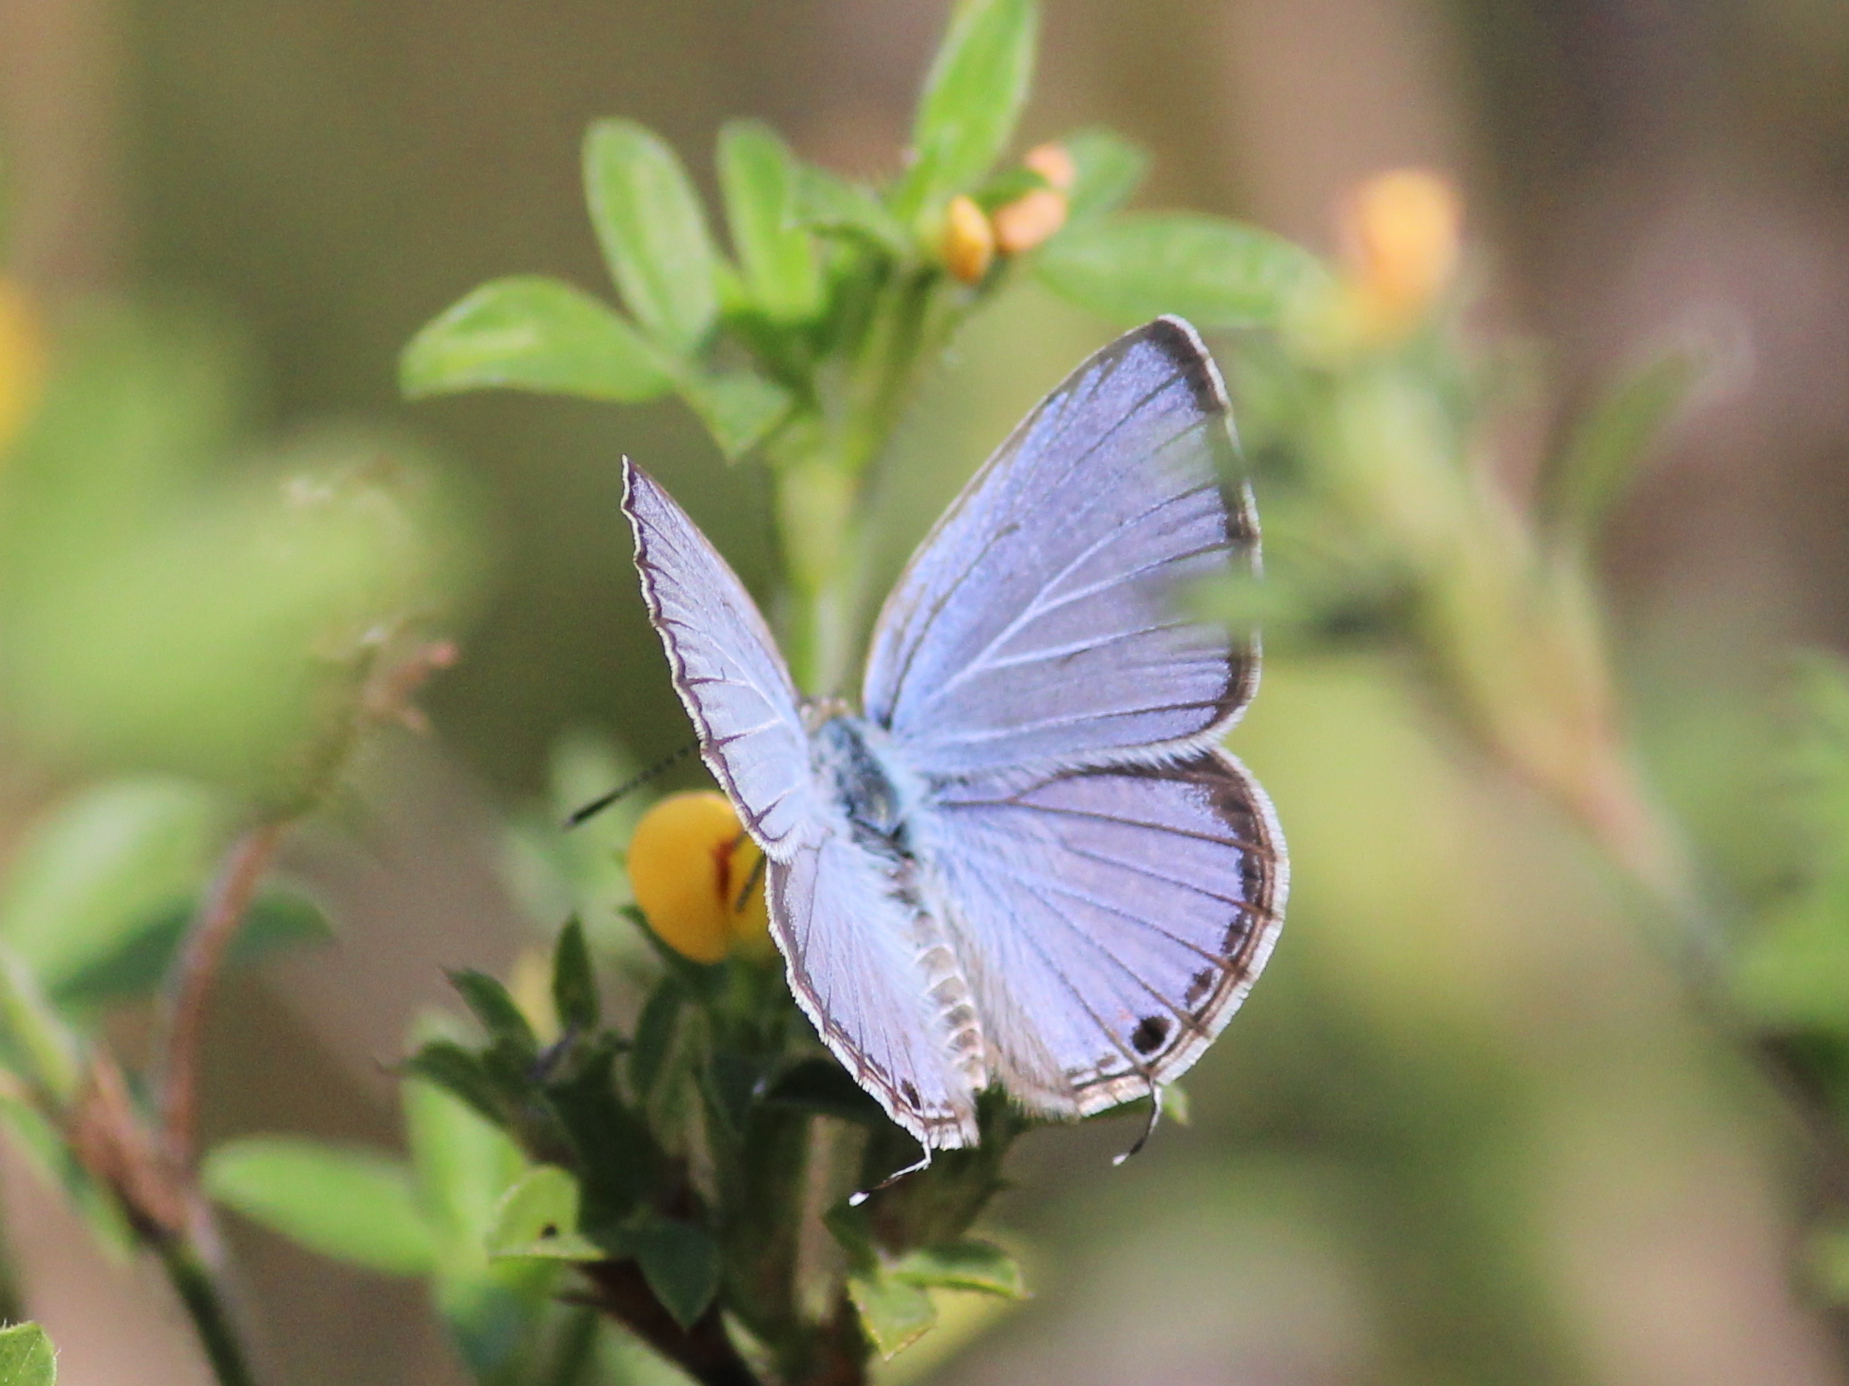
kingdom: Animalia
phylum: Arthropoda
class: Insecta
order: Lepidoptera
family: Lycaenidae
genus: Luthrodes
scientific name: Luthrodes pandava
